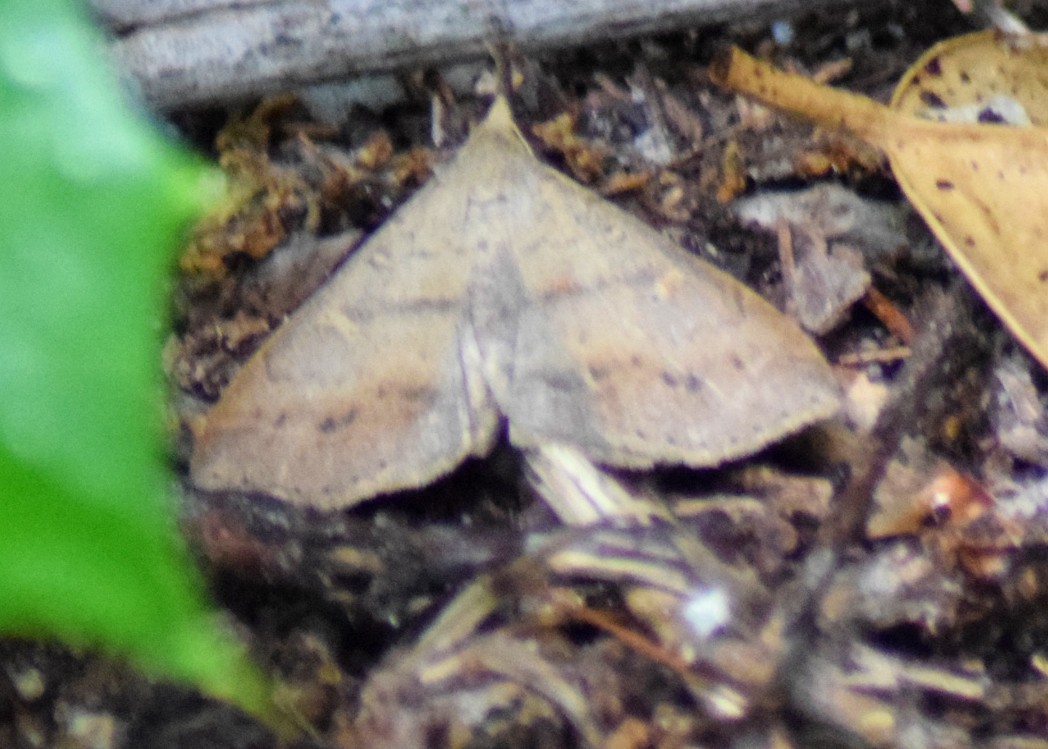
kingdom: Animalia
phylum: Arthropoda
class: Insecta
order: Lepidoptera
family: Erebidae
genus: Renia
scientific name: Renia adspergillus
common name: Speckled renia moth
